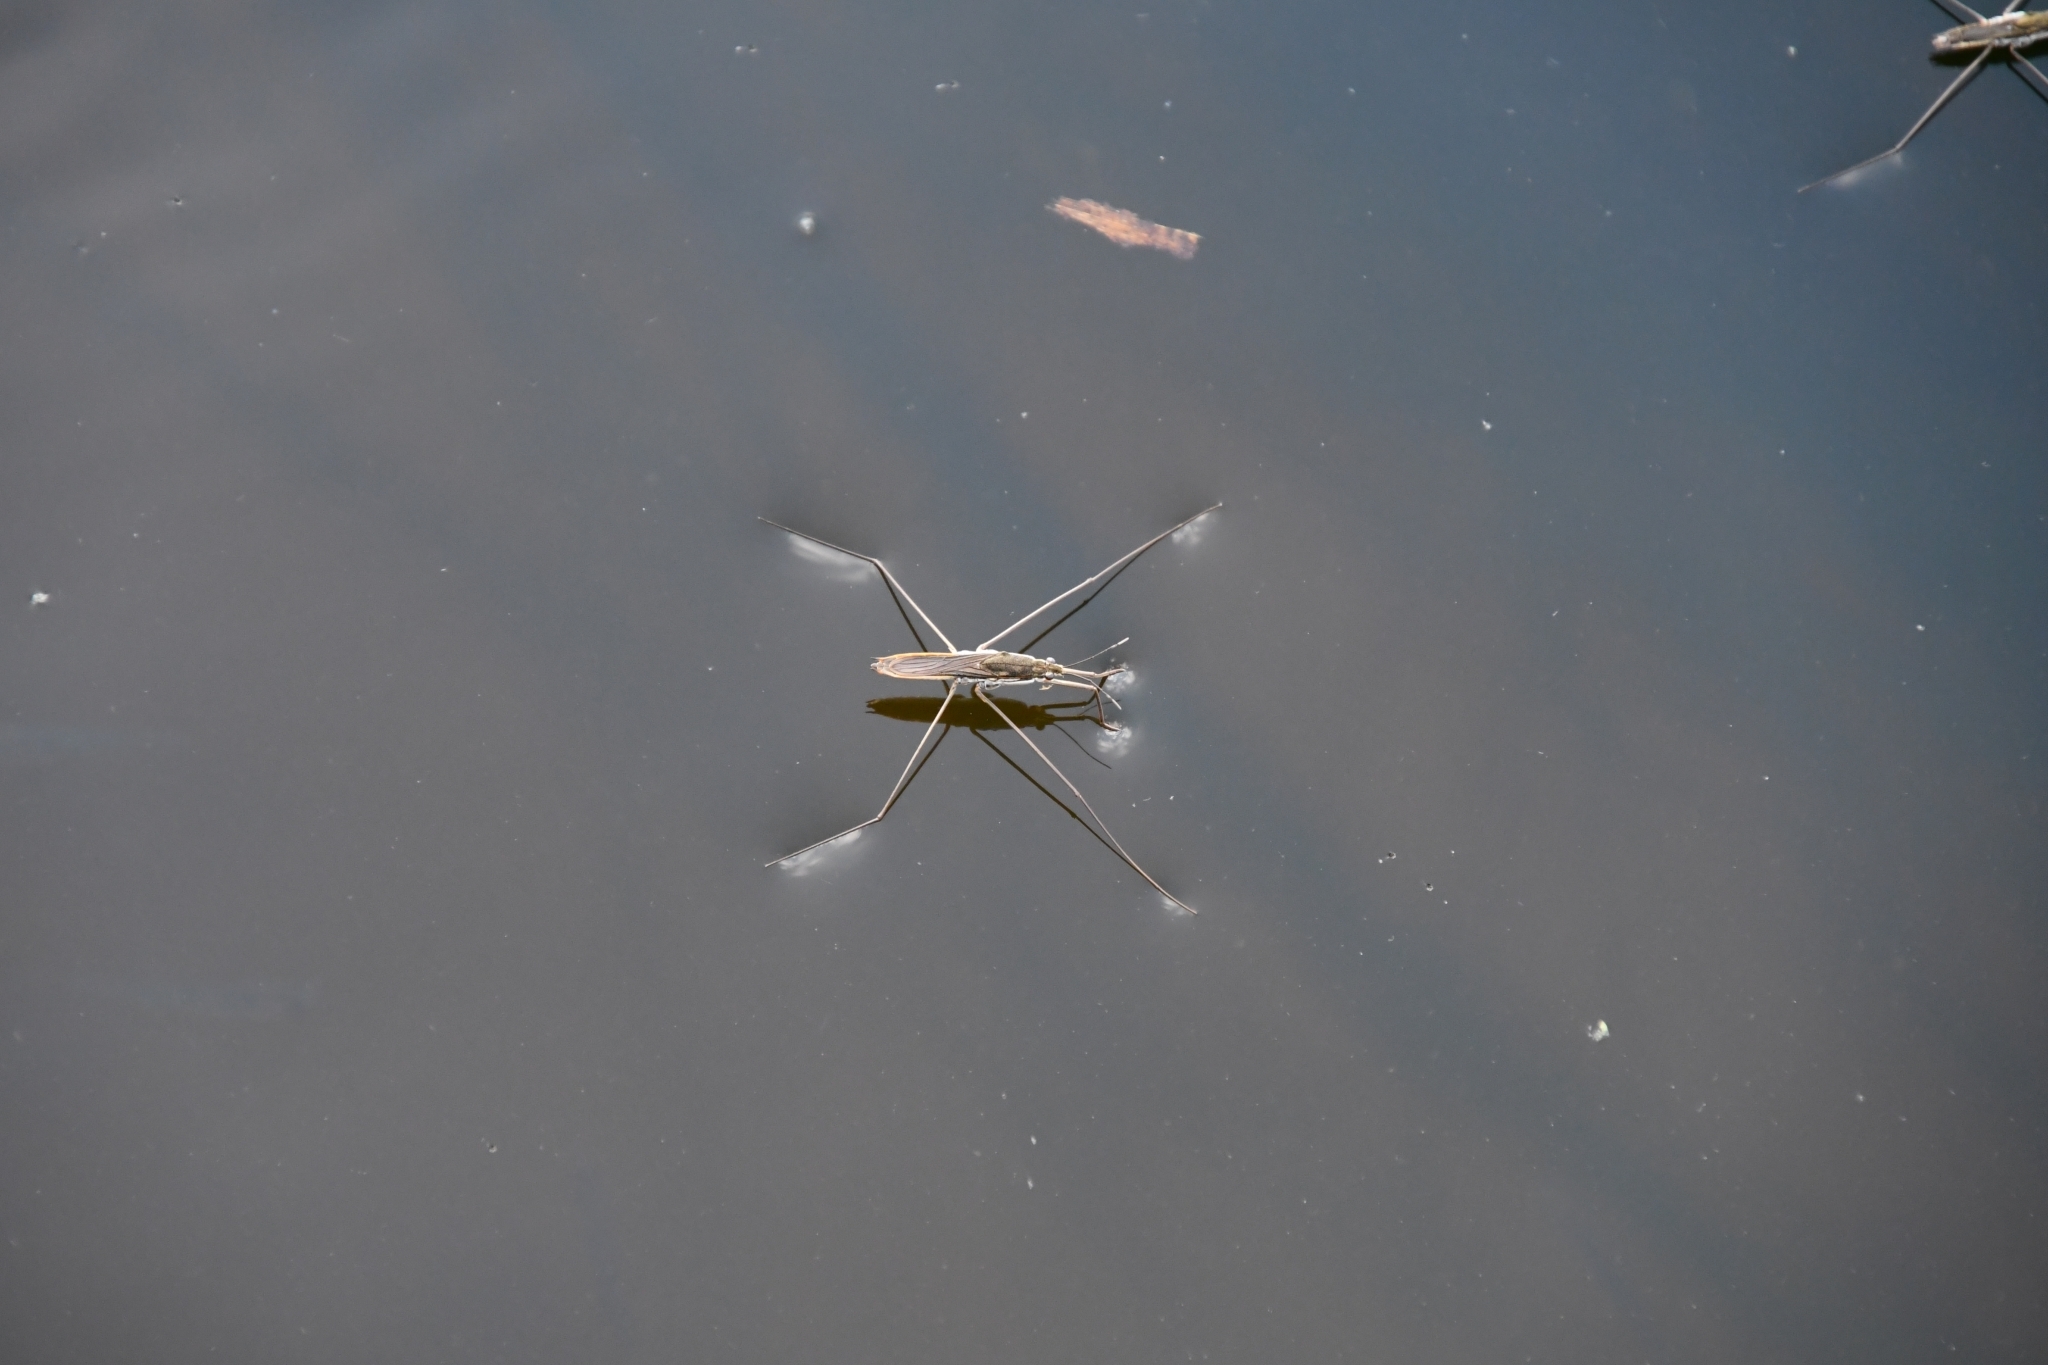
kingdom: Animalia
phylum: Arthropoda
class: Insecta
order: Hemiptera
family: Gerridae
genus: Aquarius
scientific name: Aquarius paludum
